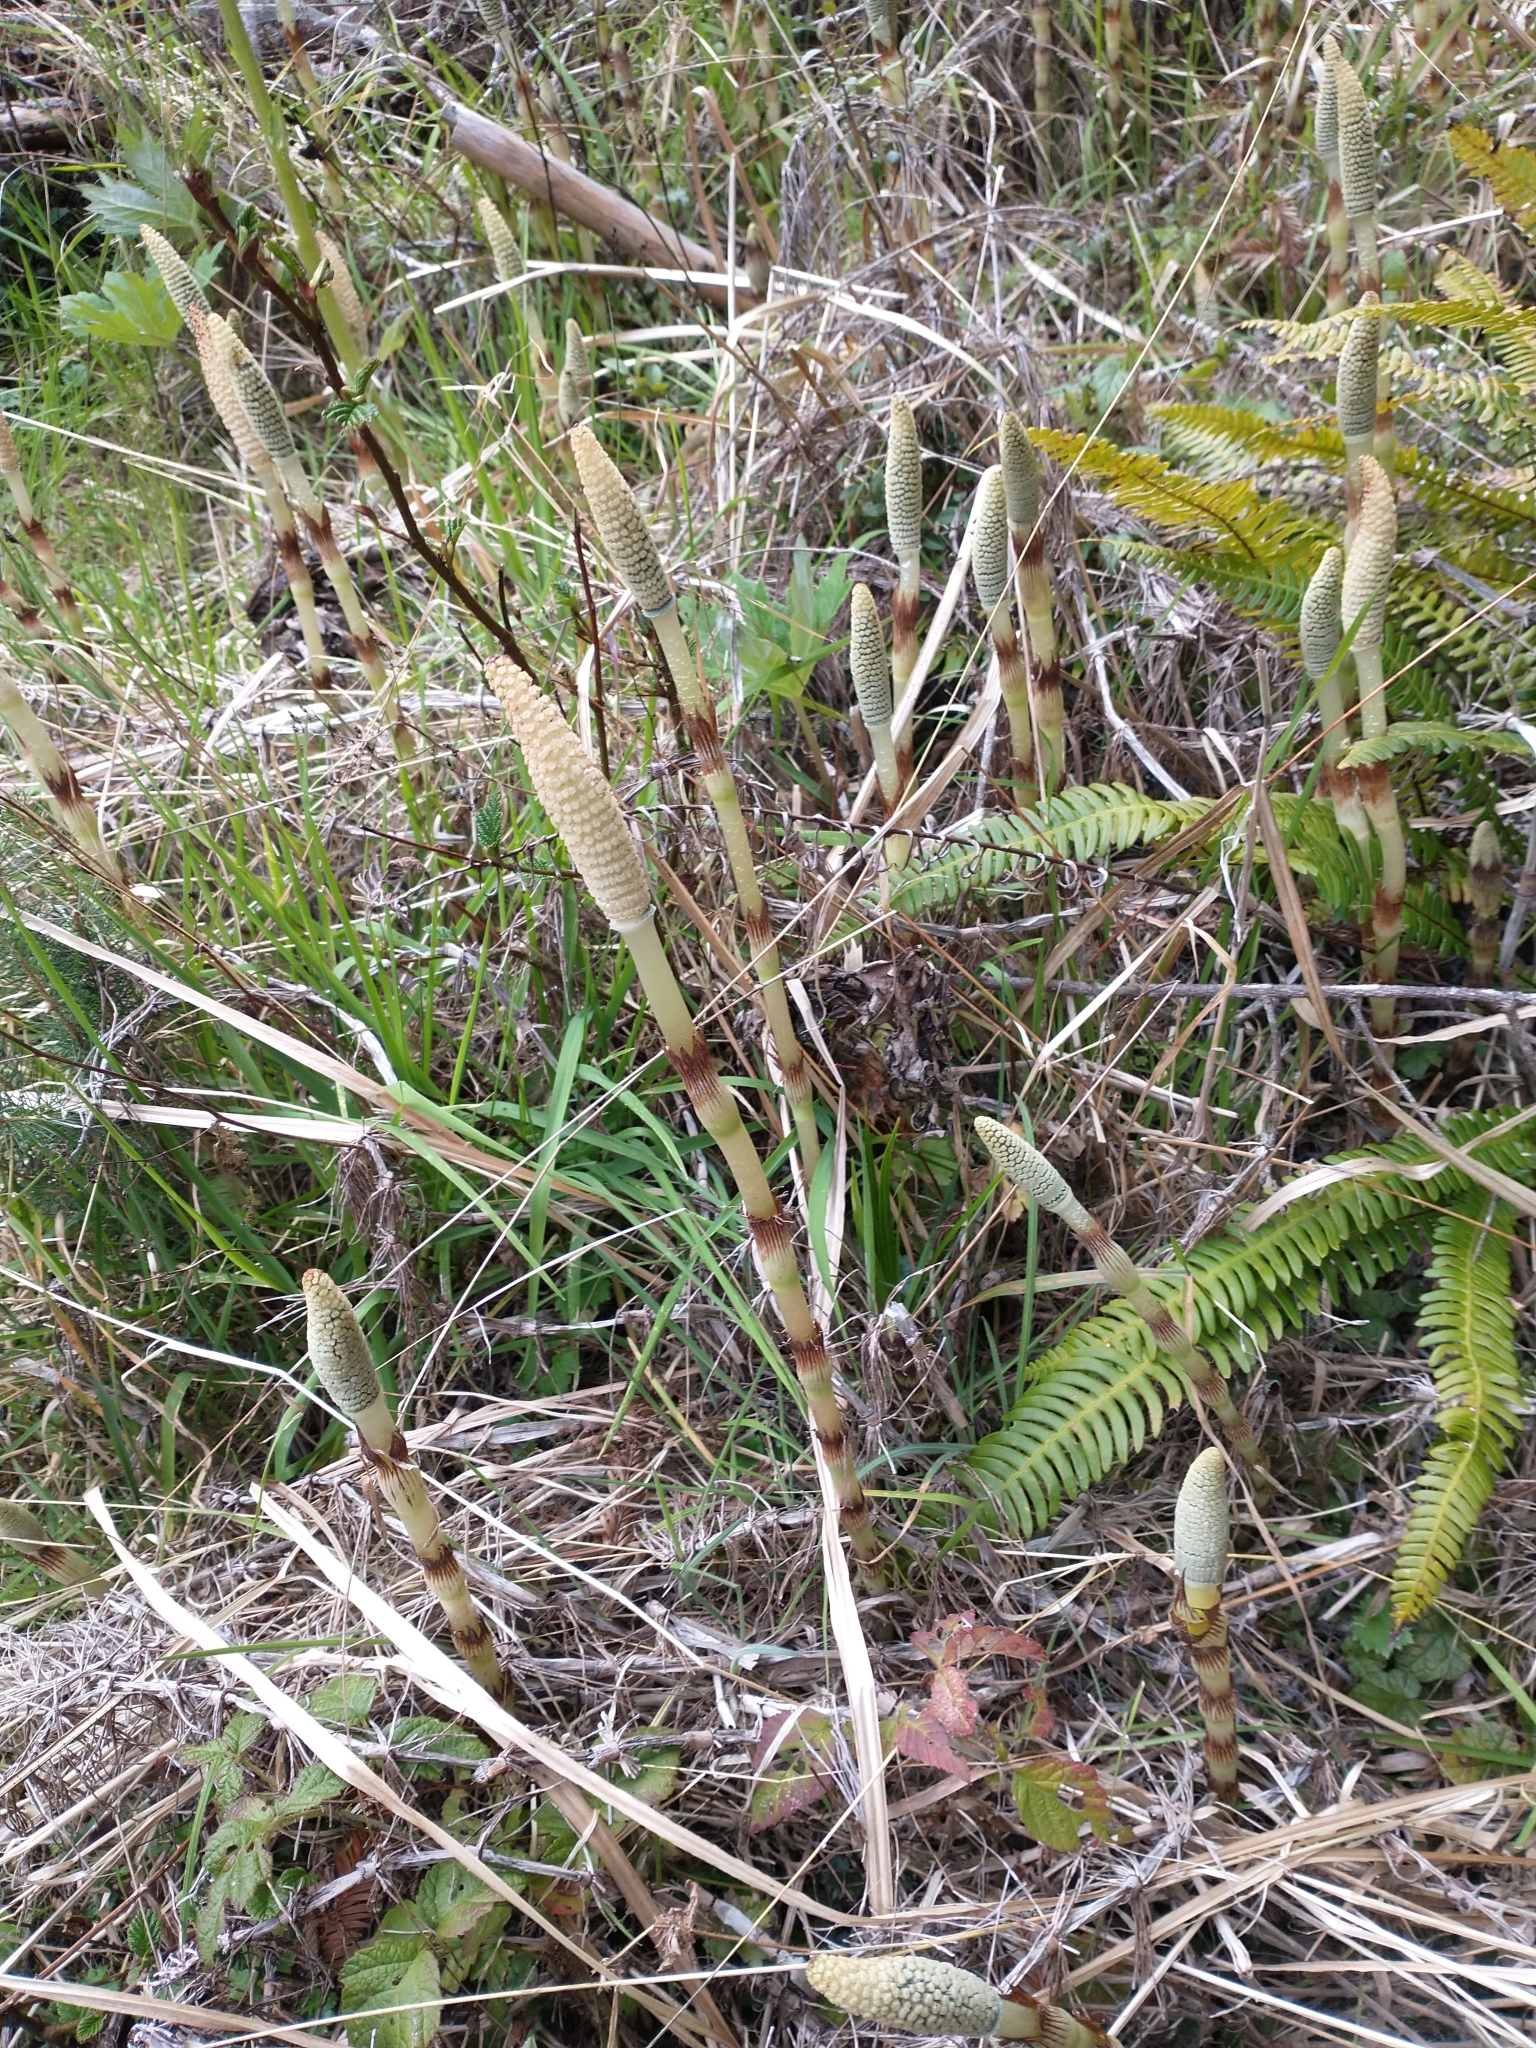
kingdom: Plantae
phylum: Tracheophyta
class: Polypodiopsida
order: Equisetales
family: Equisetaceae
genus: Equisetum
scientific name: Equisetum telmateia
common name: Great horsetail
